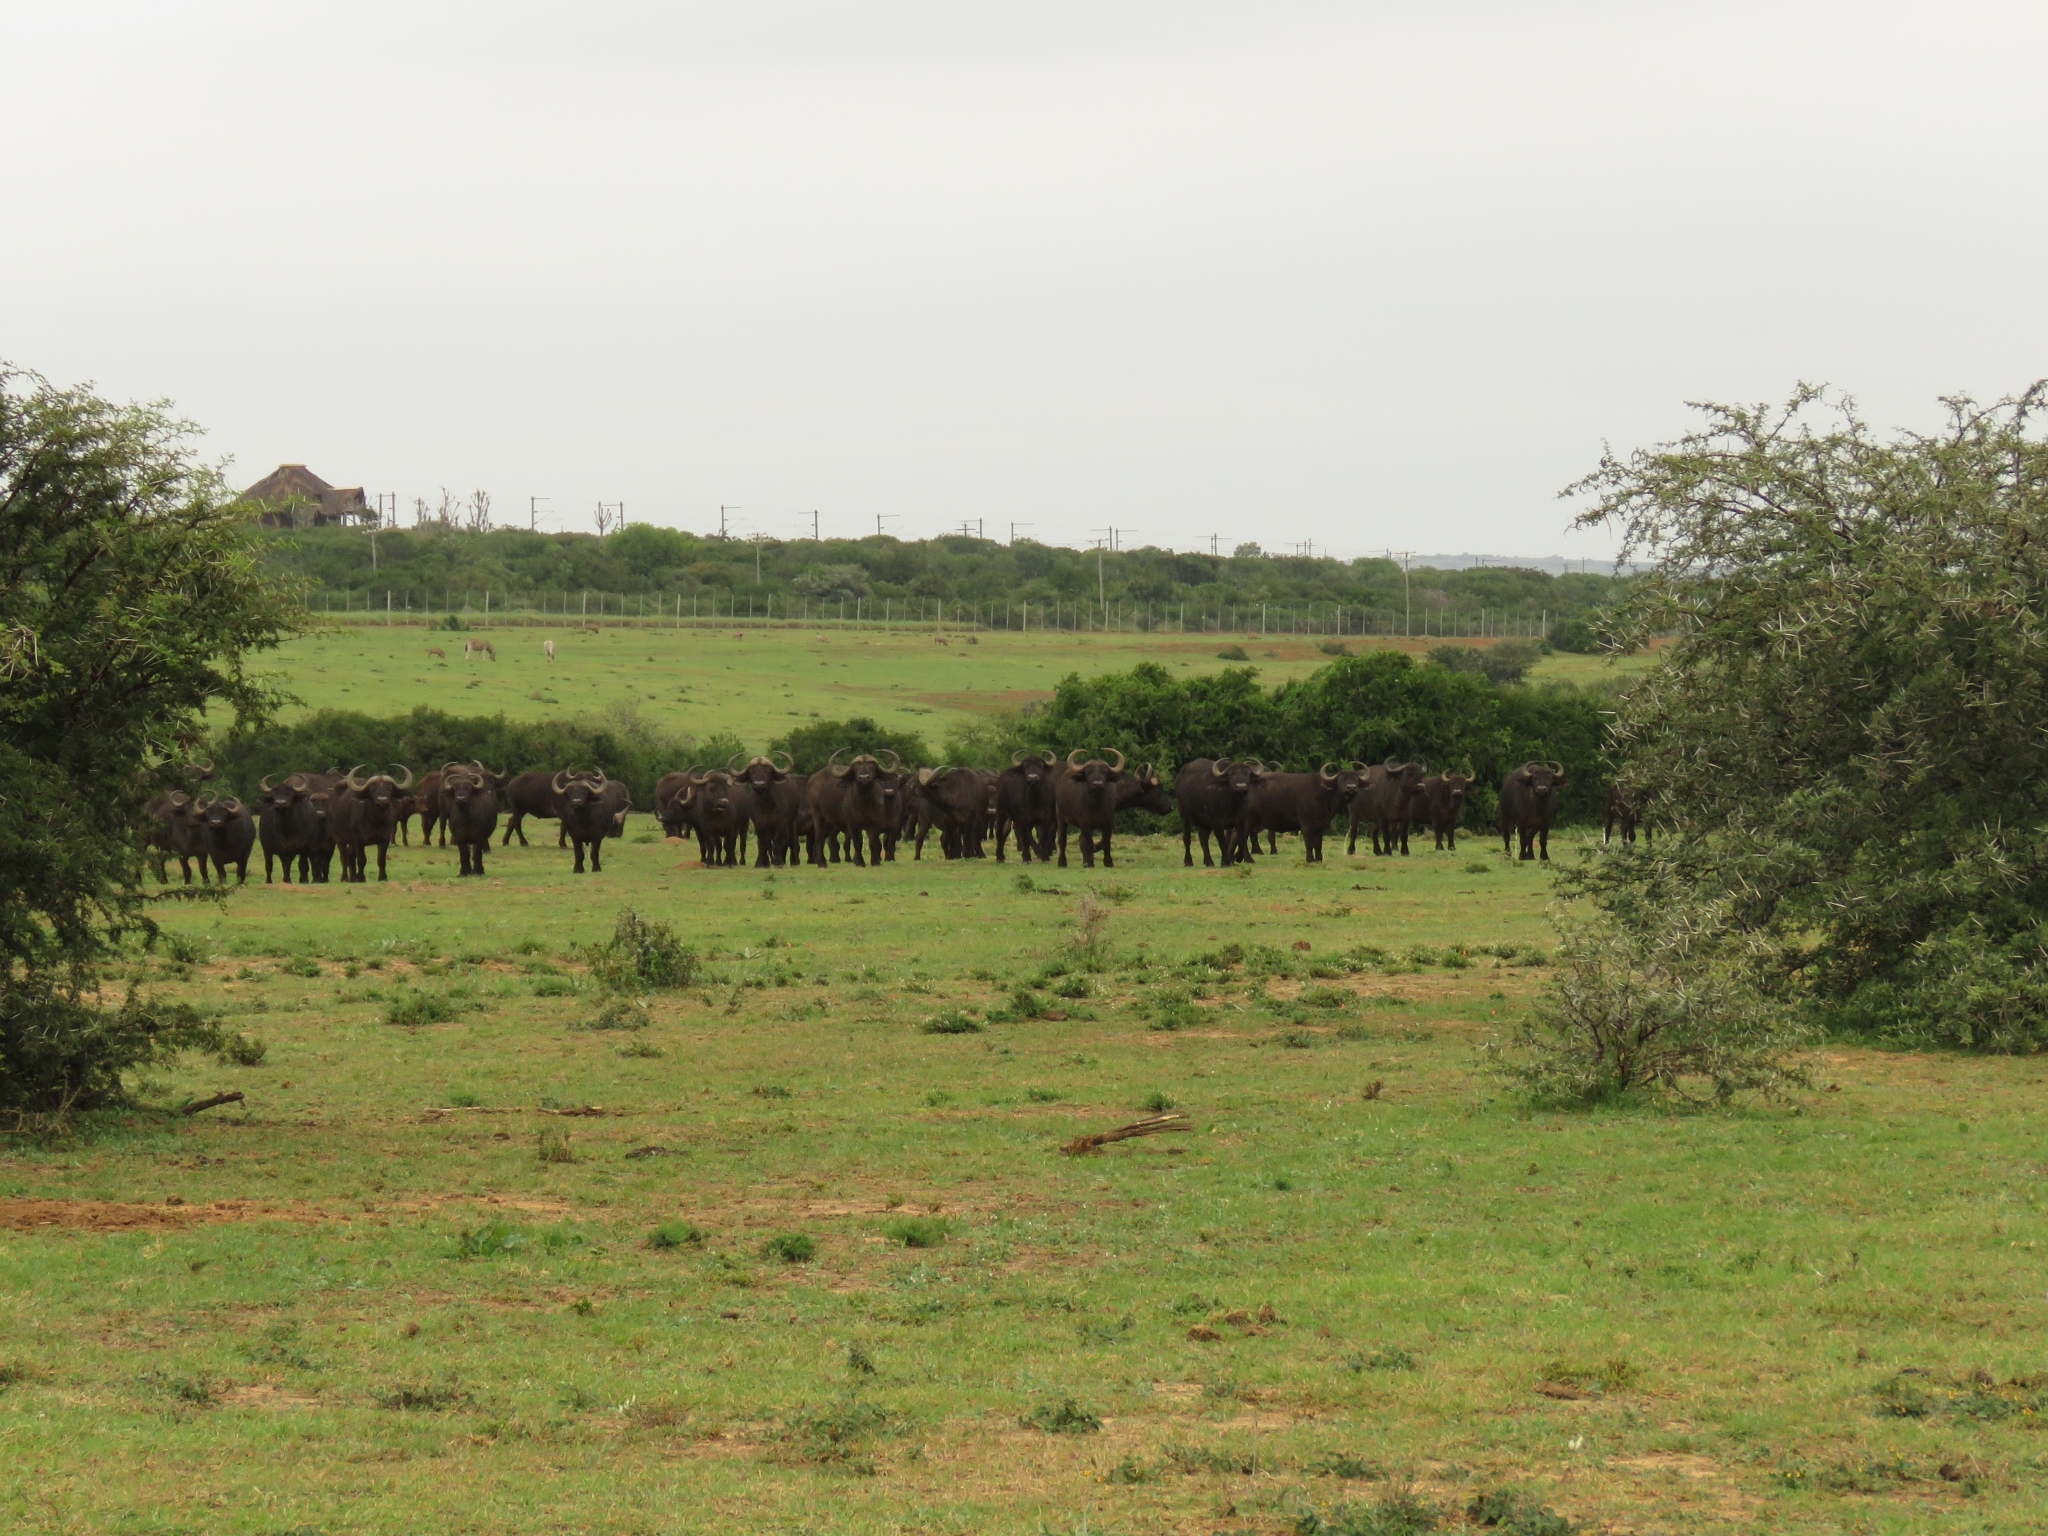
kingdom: Animalia
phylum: Chordata
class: Mammalia
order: Artiodactyla
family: Bovidae
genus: Syncerus
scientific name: Syncerus caffer
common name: African buffalo
